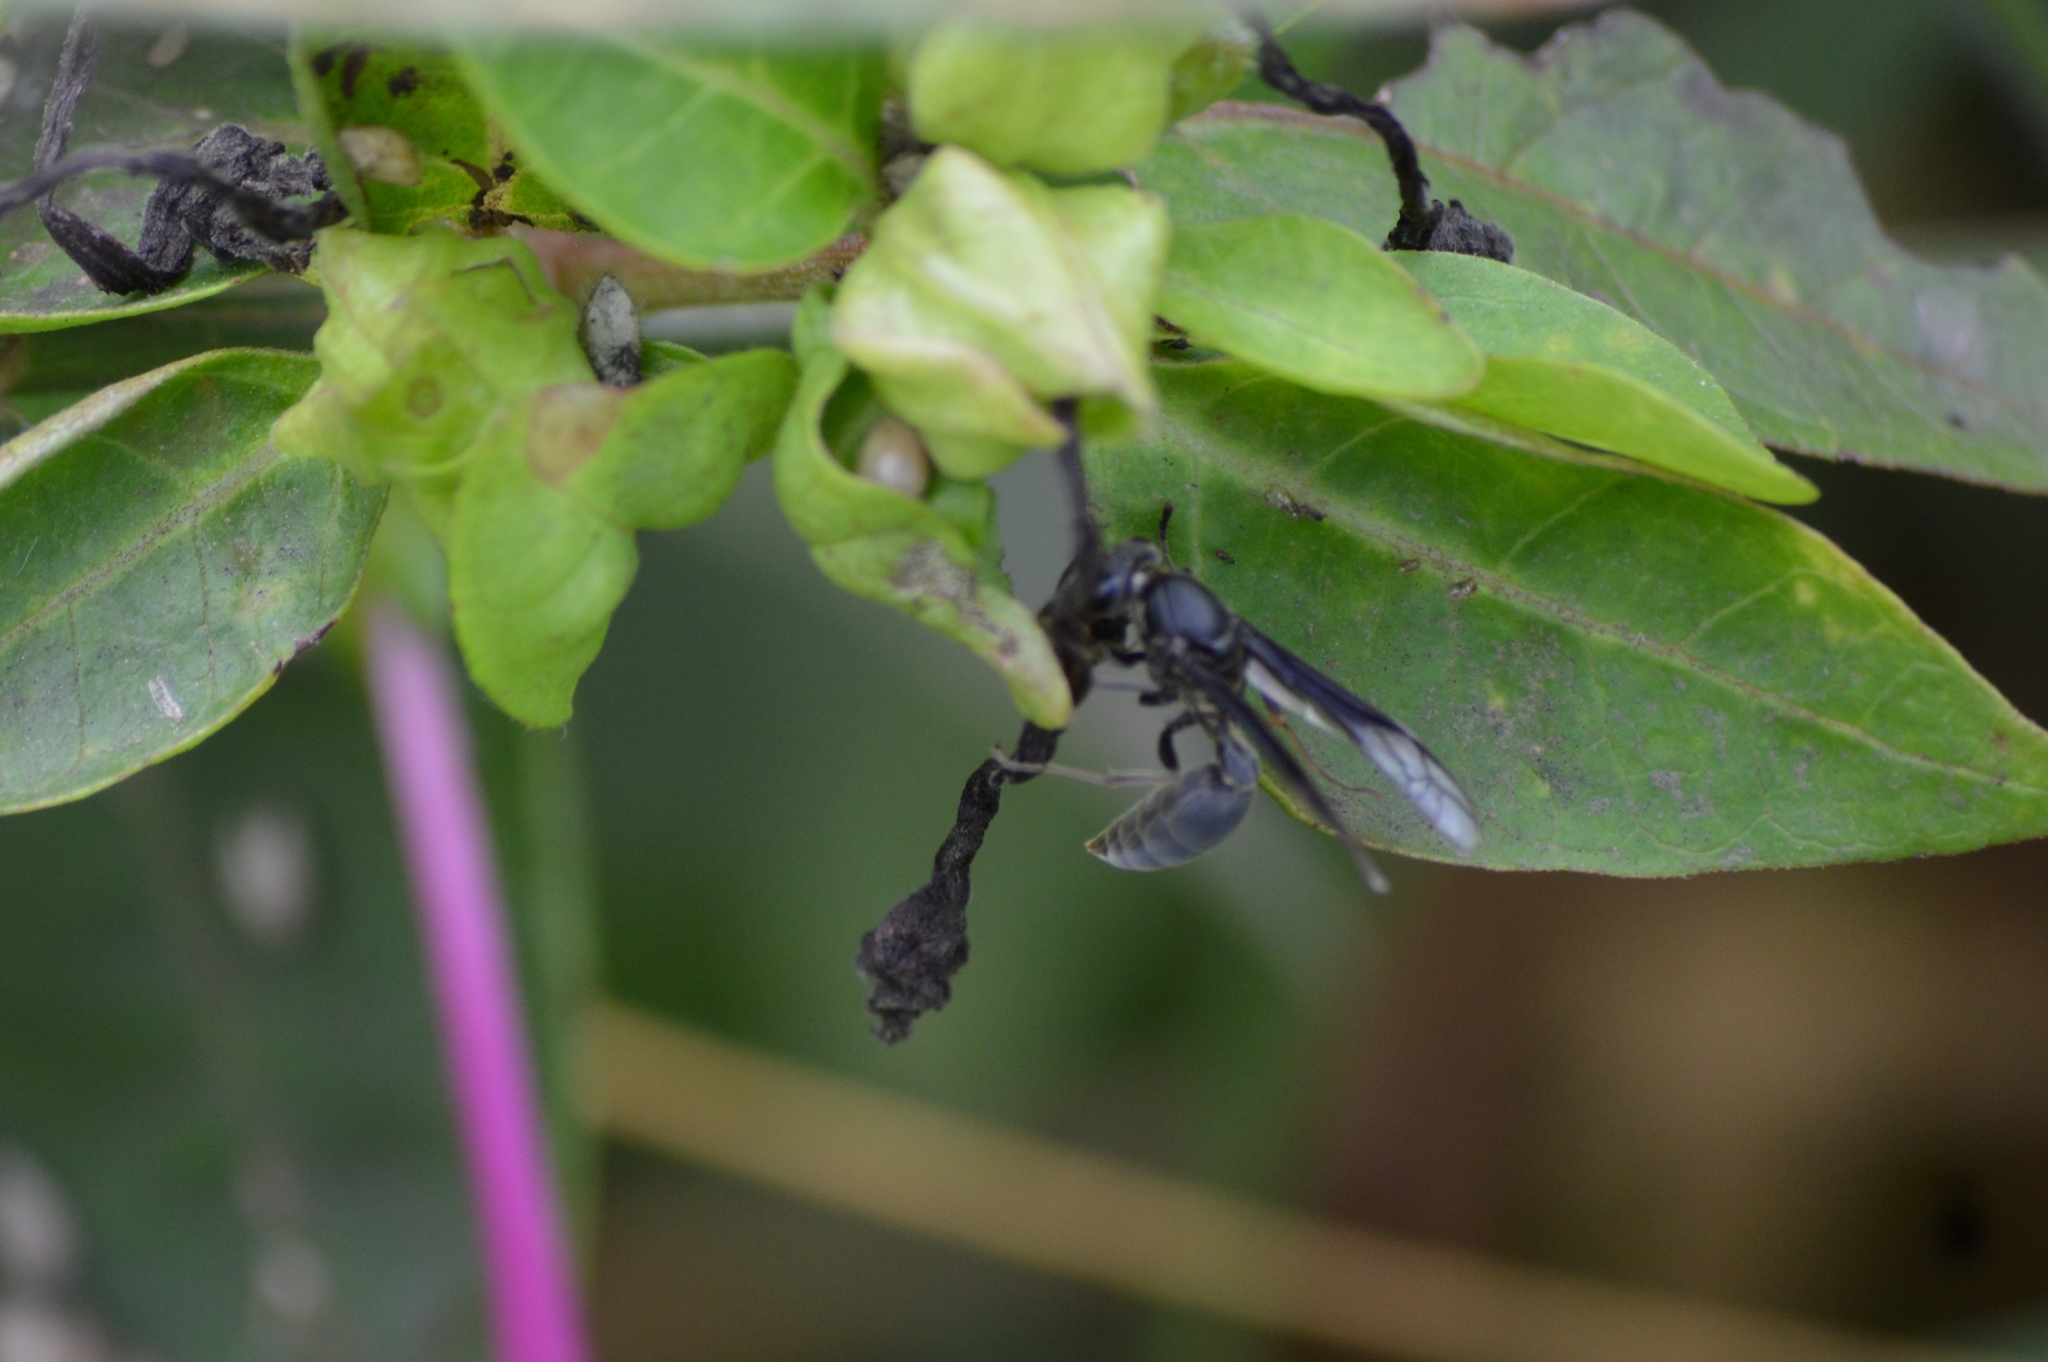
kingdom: Animalia
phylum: Arthropoda
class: Insecta
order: Hymenoptera
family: Eumenidae
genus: Polybia
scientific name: Polybia ignobilis
